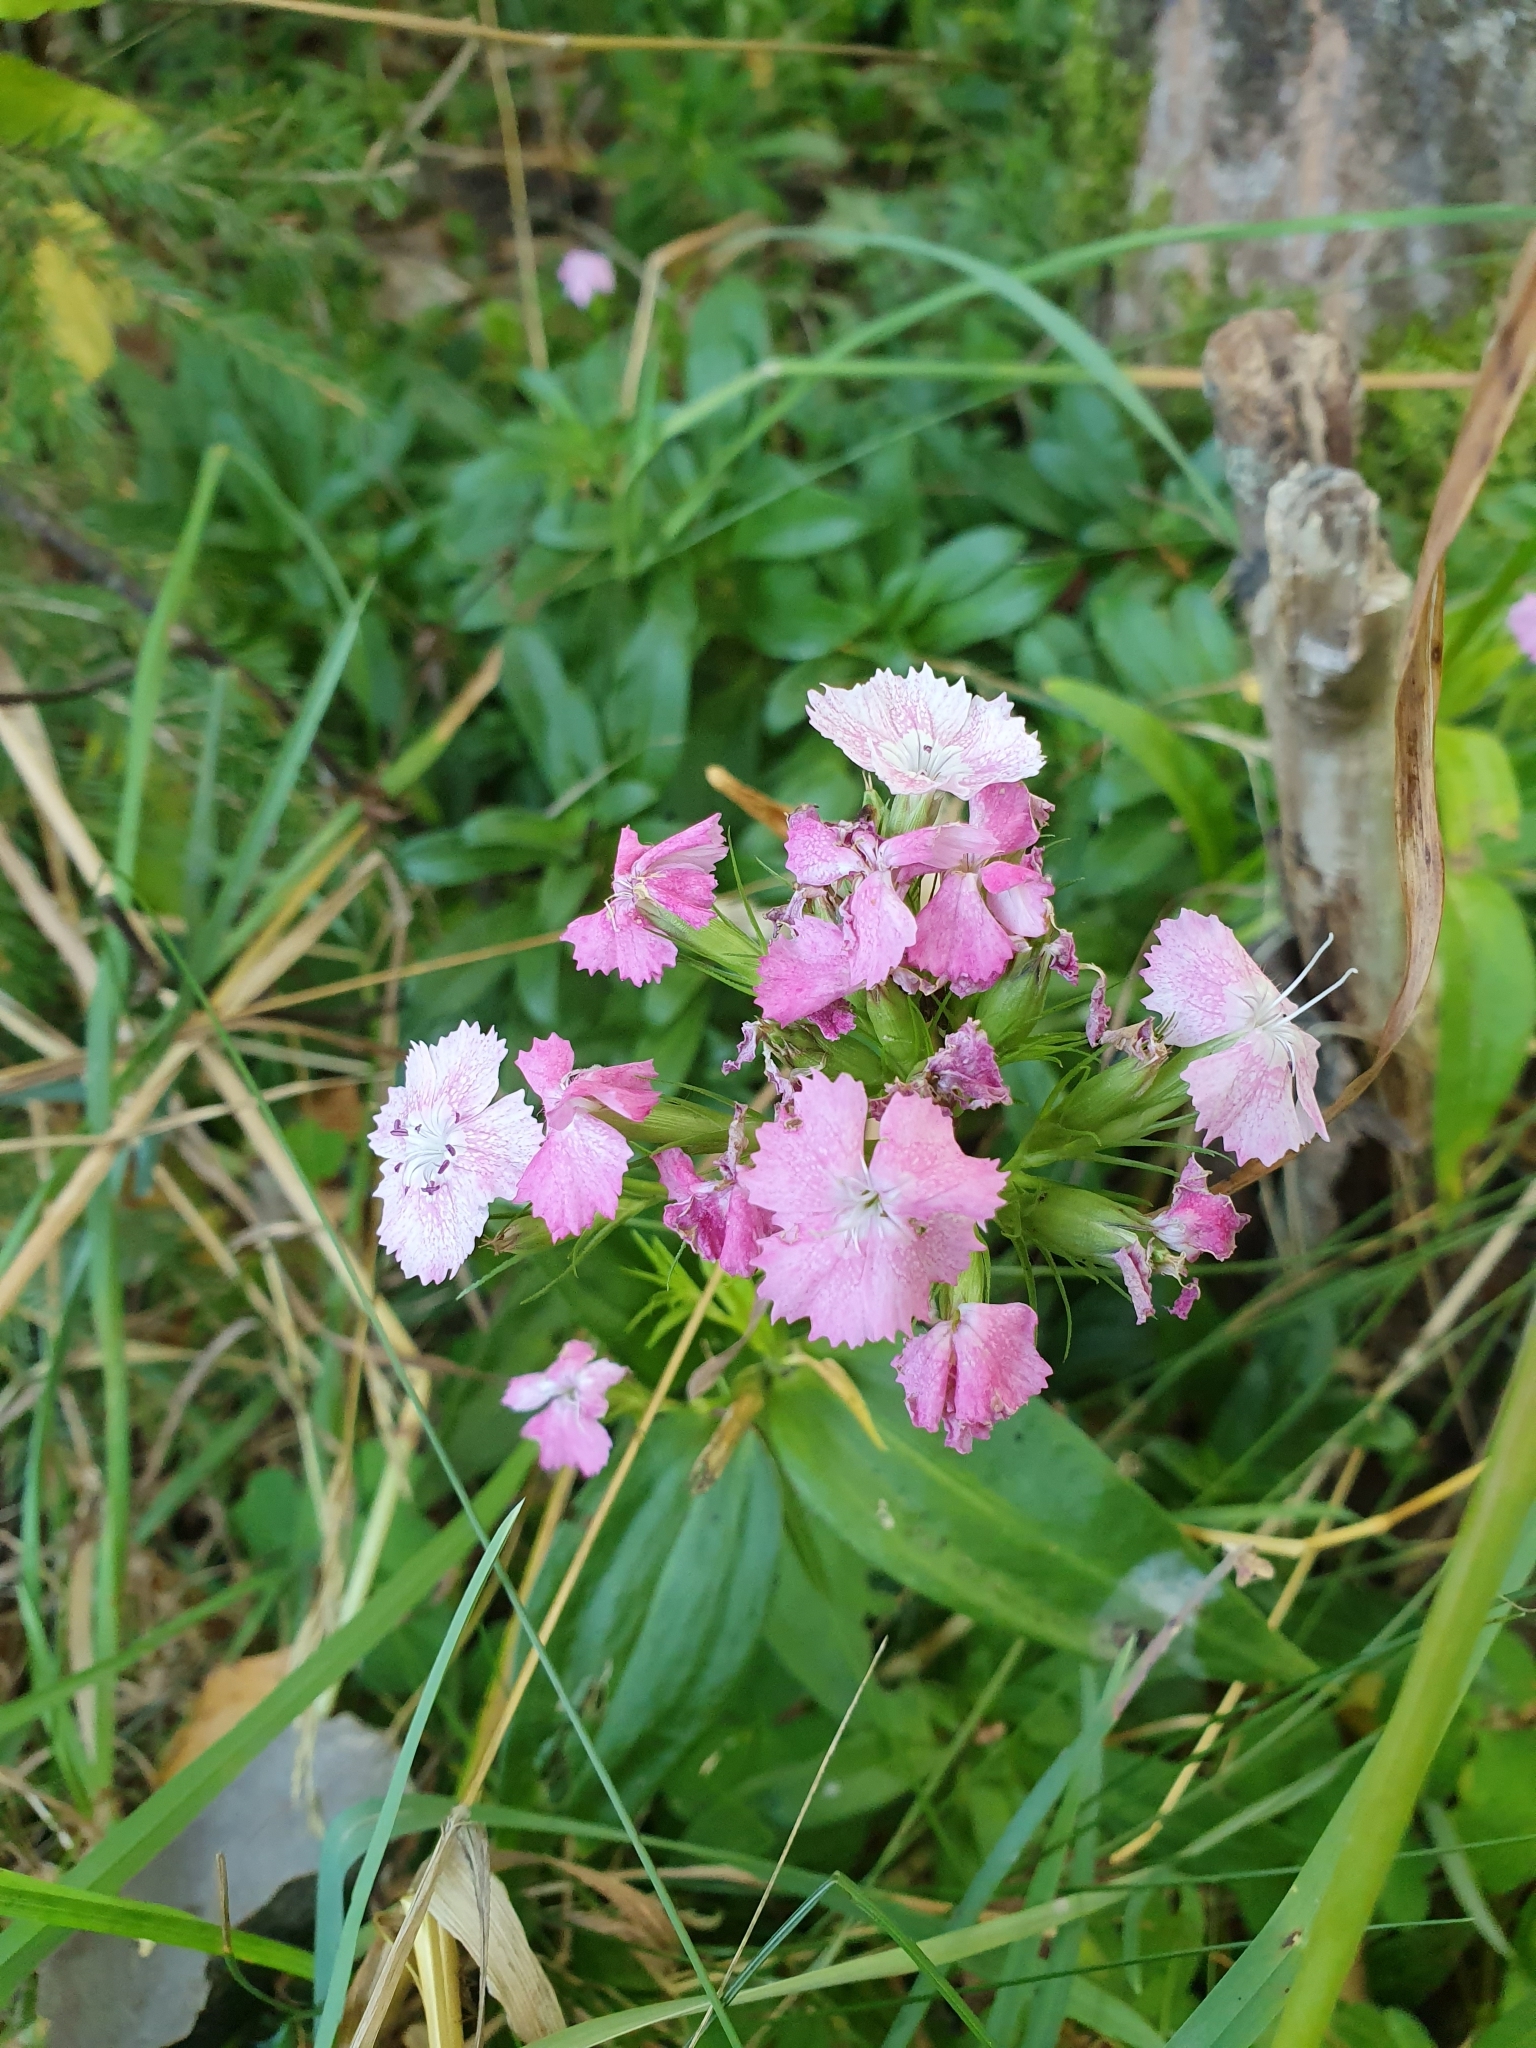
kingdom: Plantae
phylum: Tracheophyta
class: Magnoliopsida
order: Caryophyllales
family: Caryophyllaceae
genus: Dianthus
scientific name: Dianthus barbatus
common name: Sweet-william
